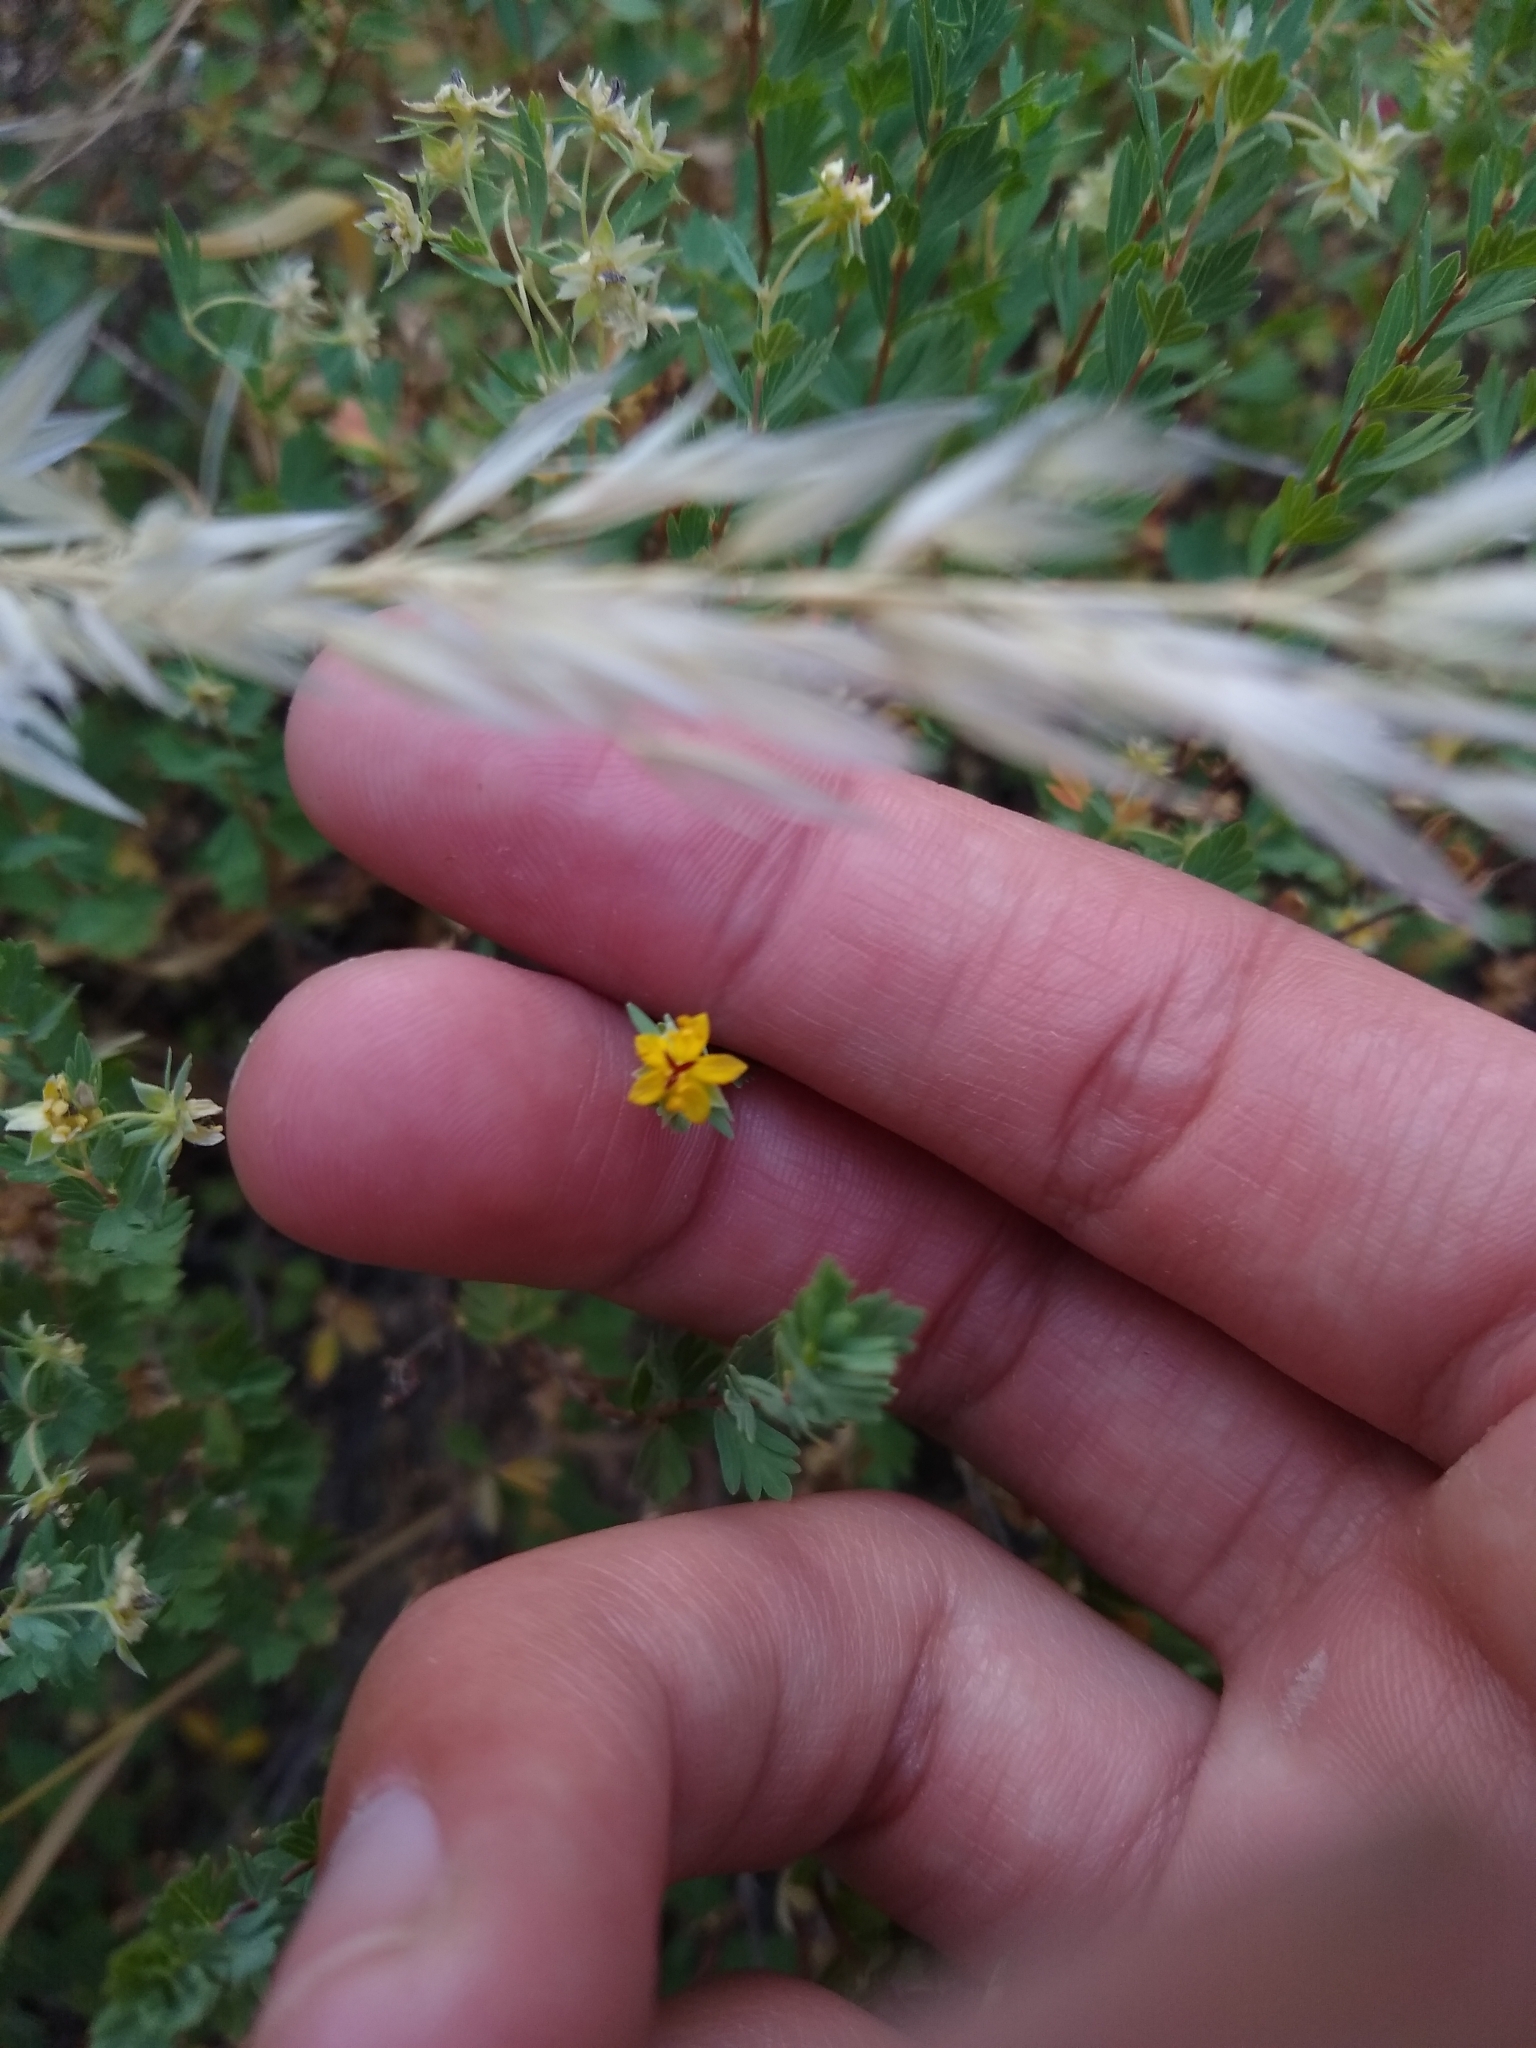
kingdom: Plantae
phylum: Tracheophyta
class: Magnoliopsida
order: Geraniales
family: Vivianiaceae
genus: Wendtia
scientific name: Wendtia gracilis
